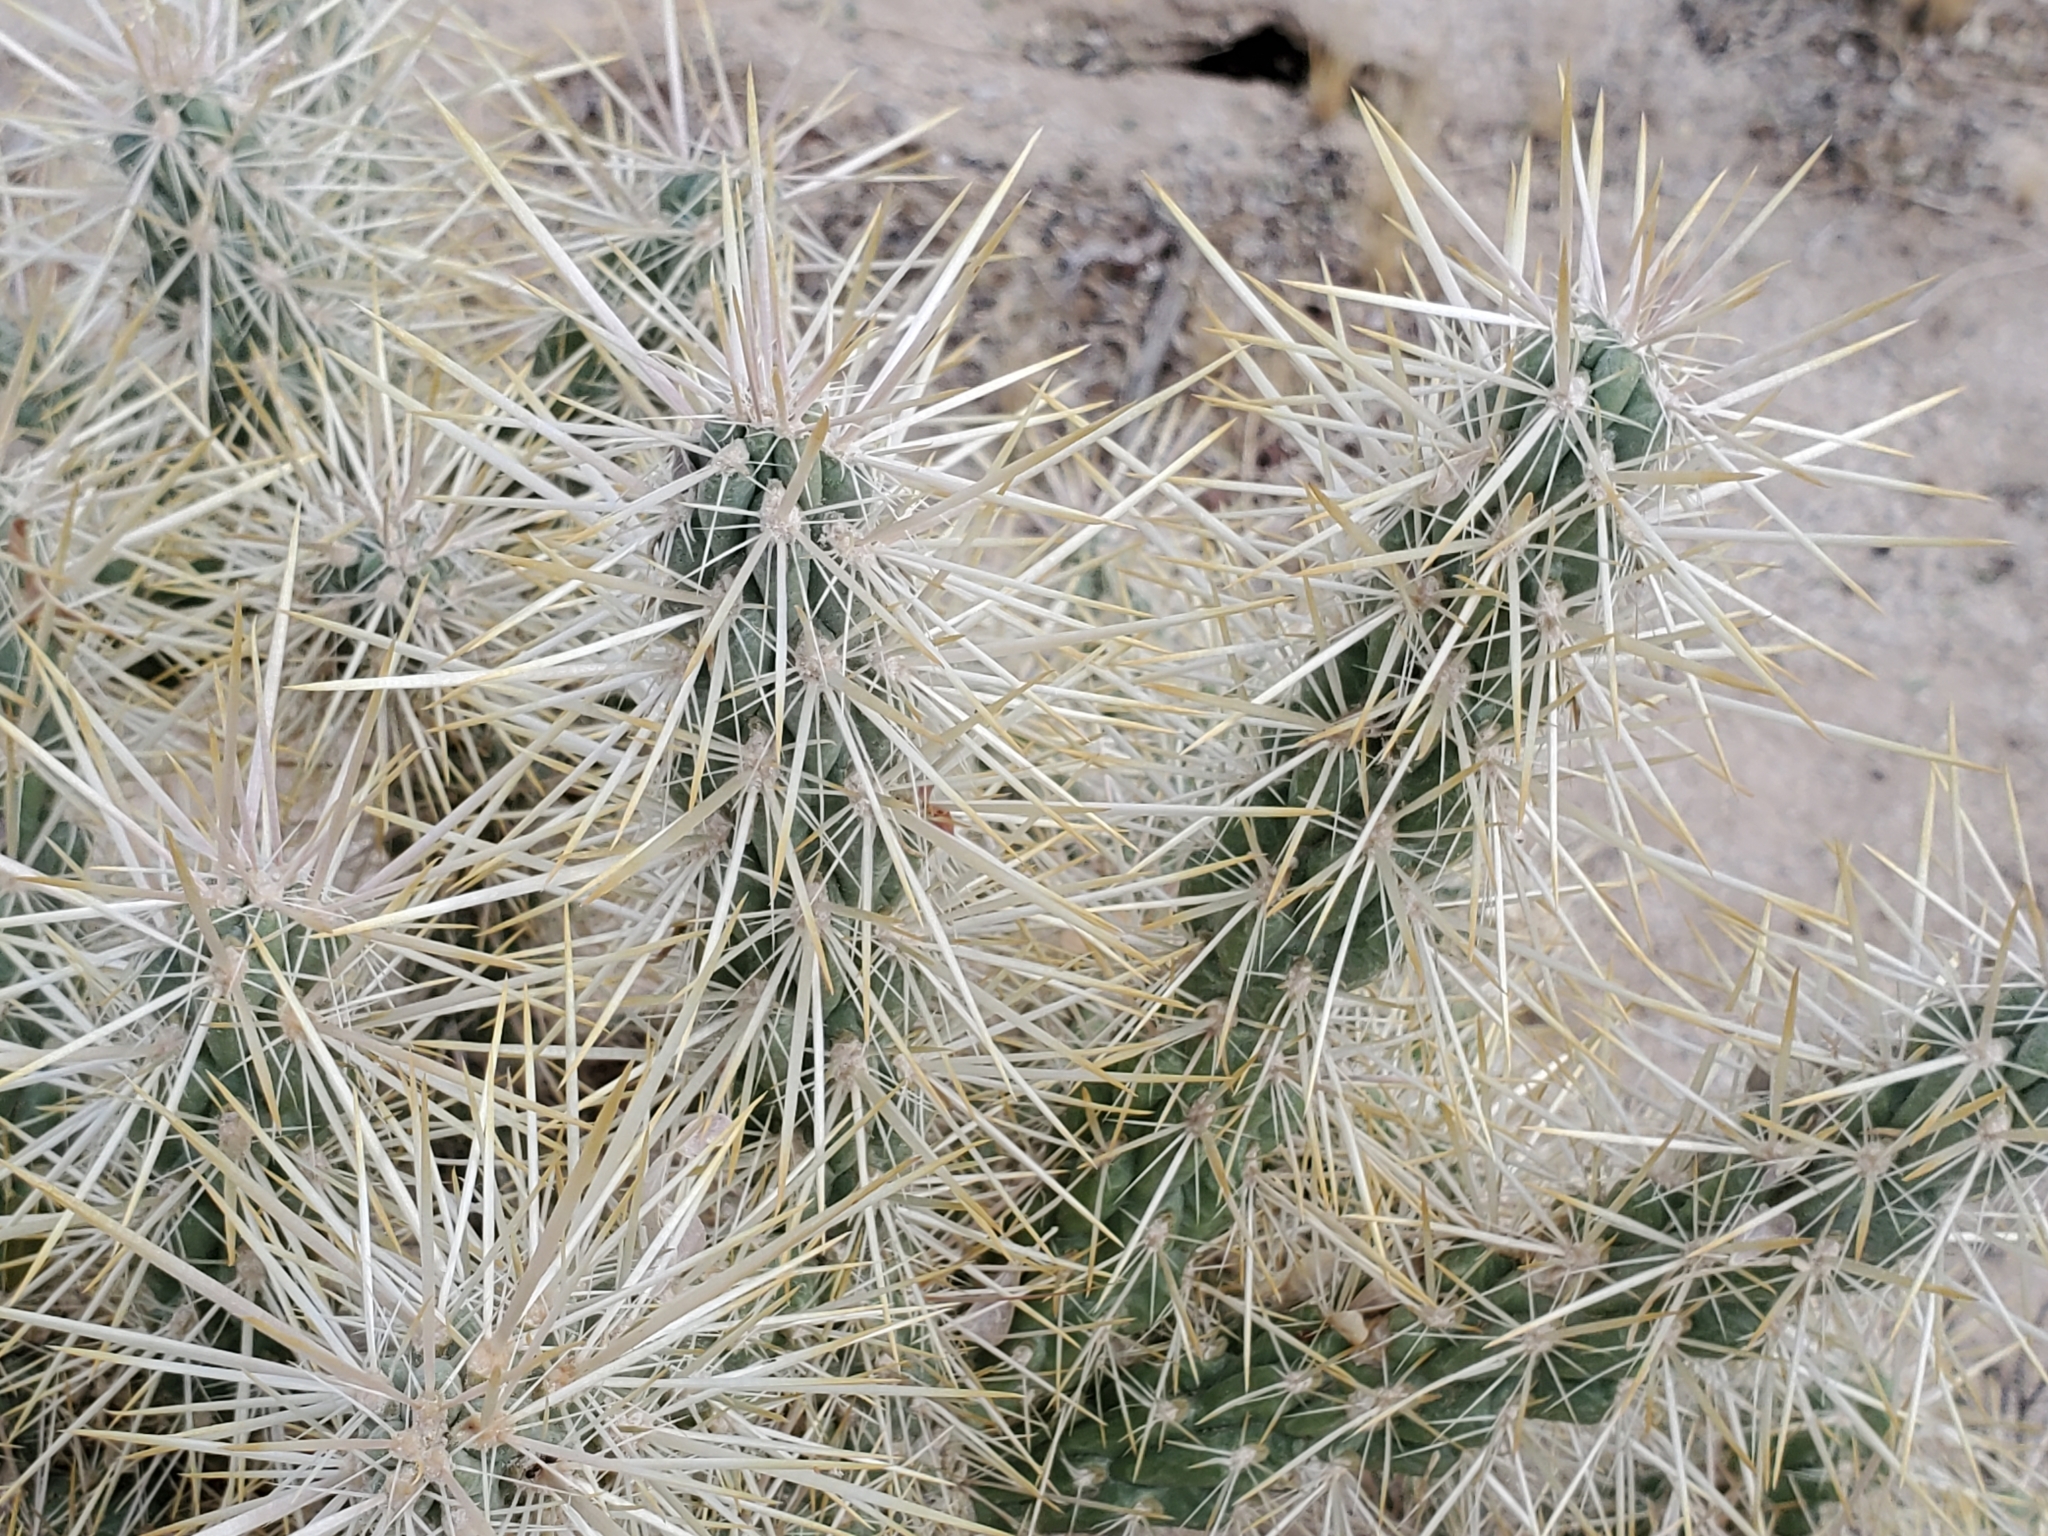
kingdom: Plantae
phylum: Tracheophyta
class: Magnoliopsida
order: Caryophyllales
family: Cactaceae
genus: Cylindropuntia
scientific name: Cylindropuntia echinocarpa
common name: Ground cholla
